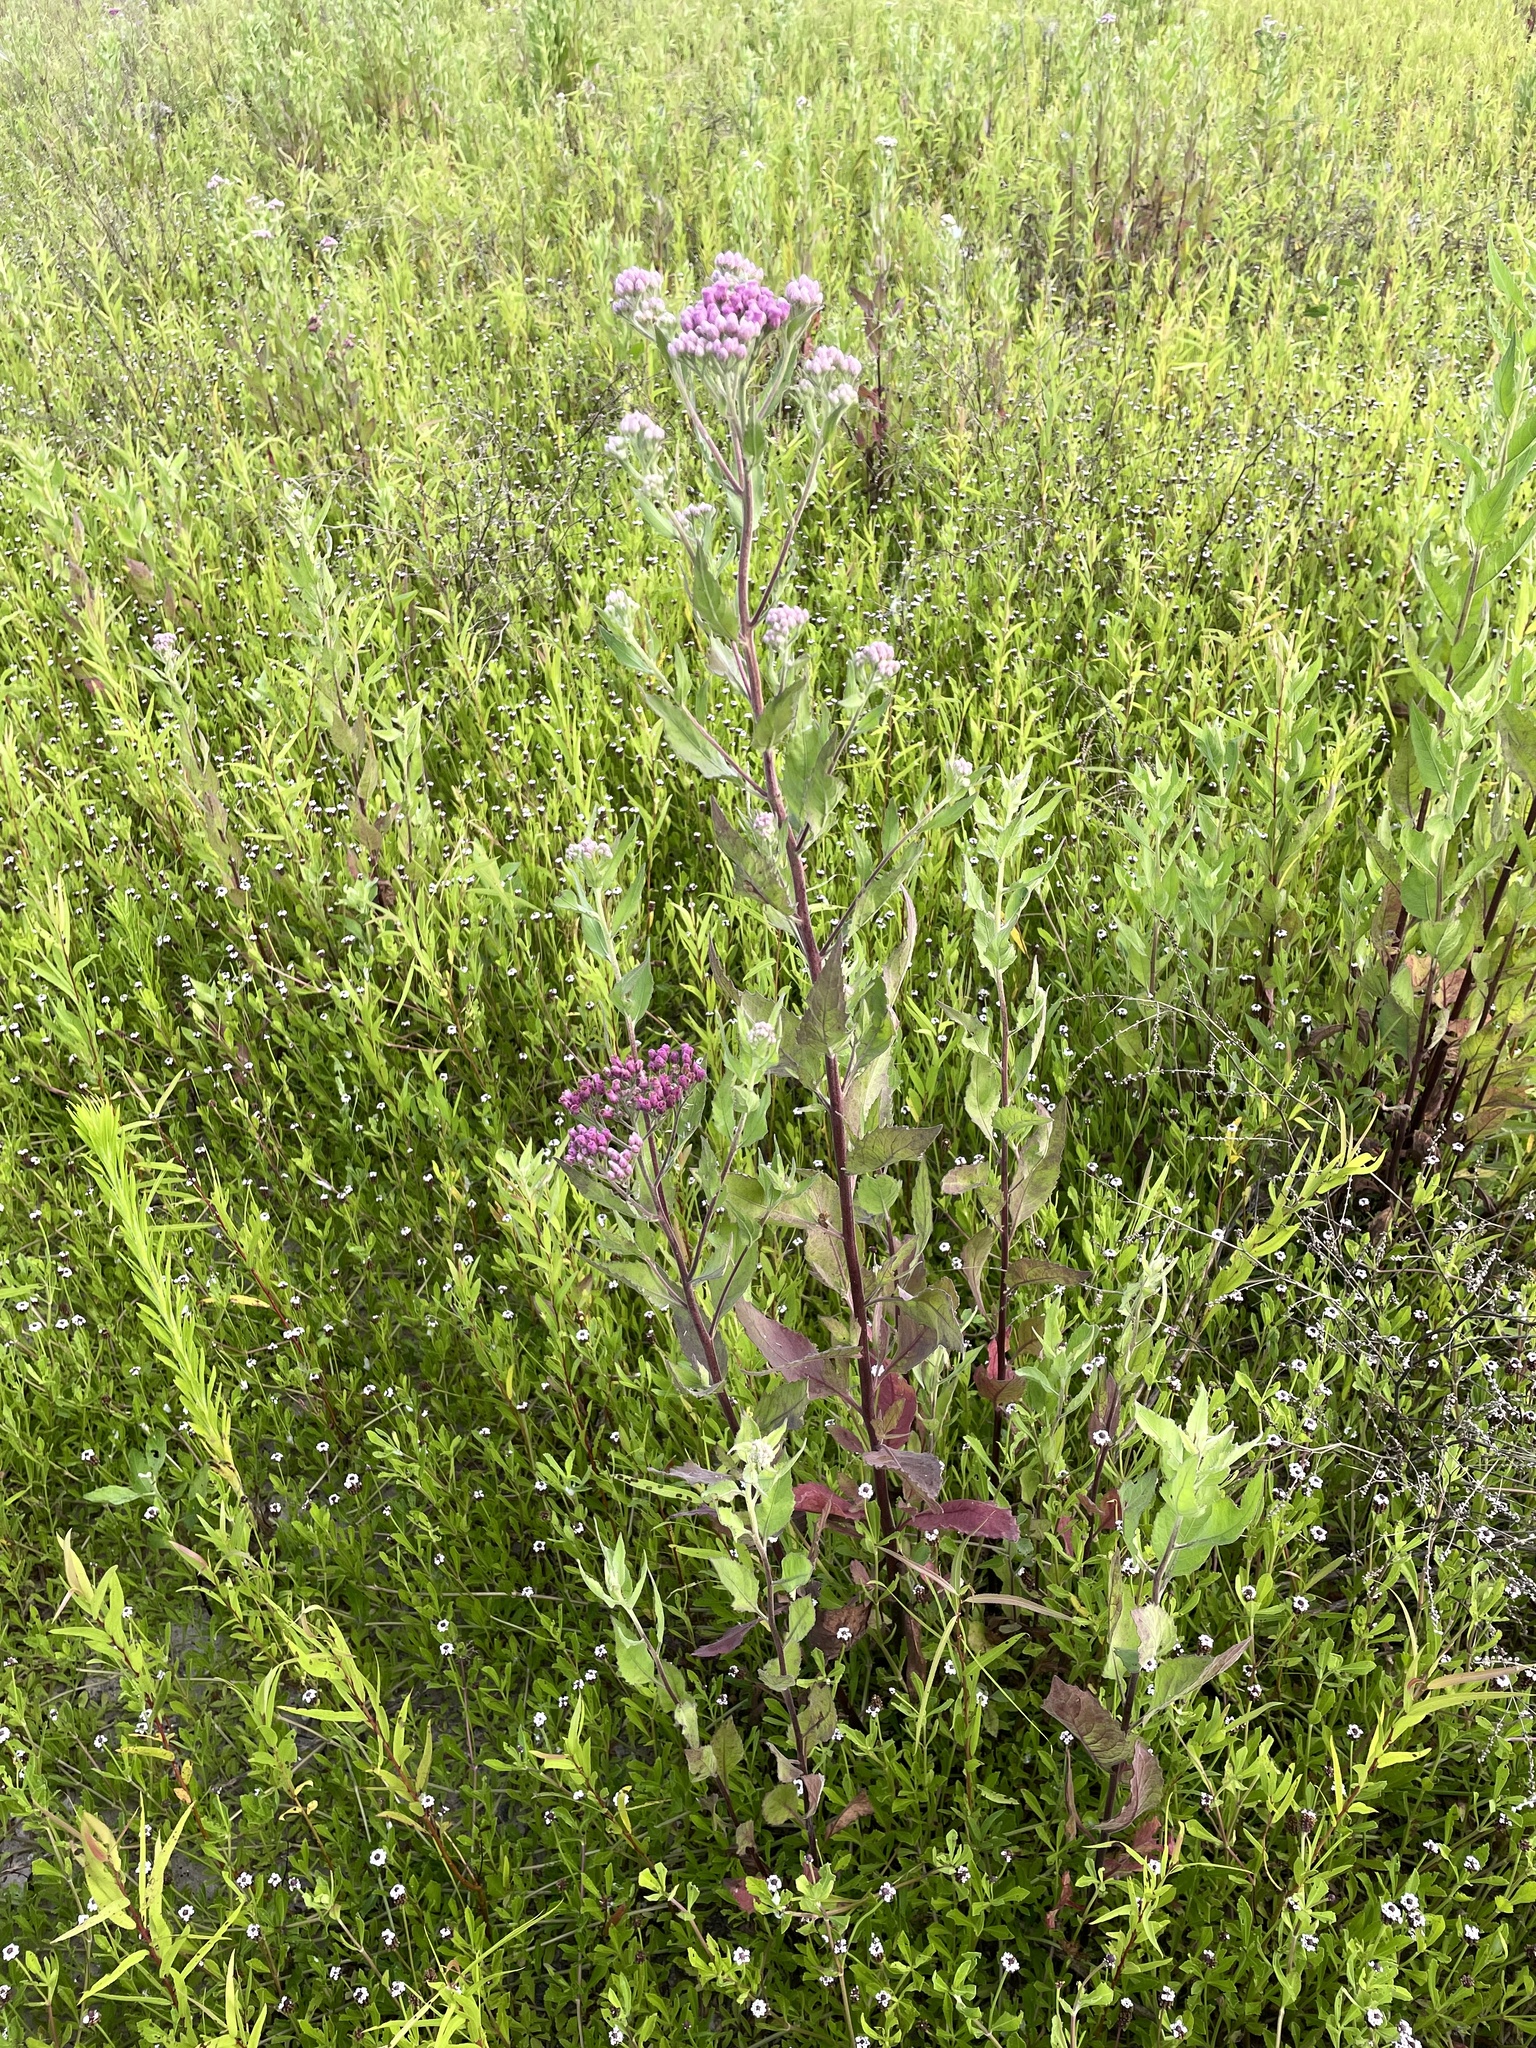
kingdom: Plantae
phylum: Tracheophyta
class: Magnoliopsida
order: Asterales
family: Asteraceae
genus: Pluchea
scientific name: Pluchea odorata
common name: Saltmarsh fleabane
